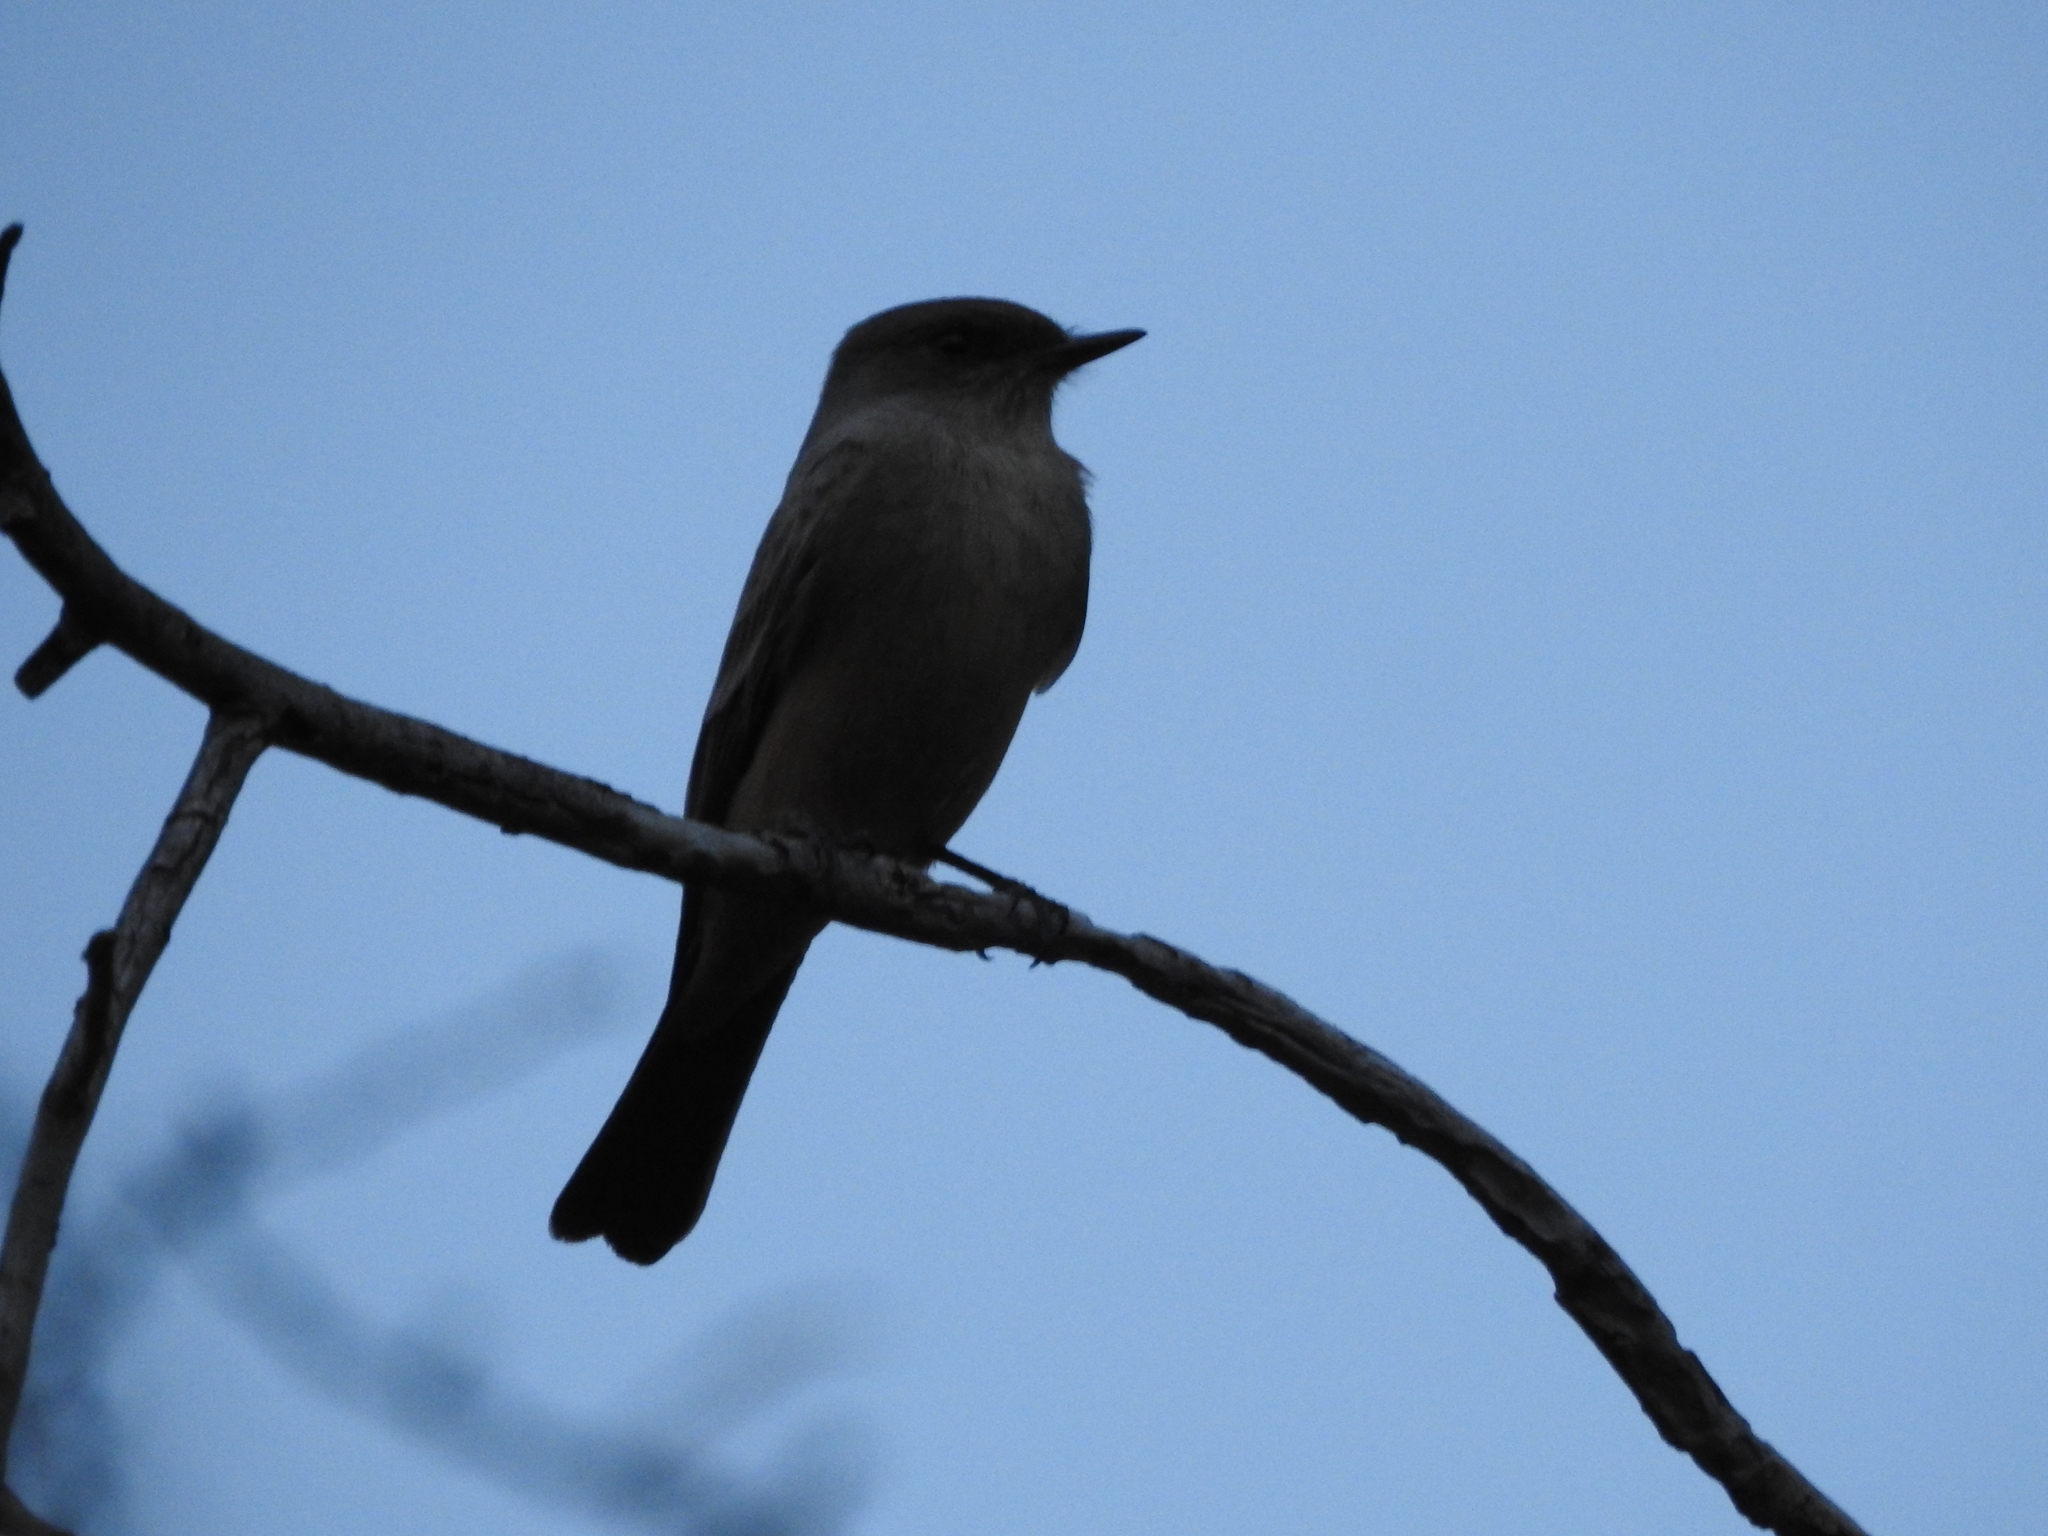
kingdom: Animalia
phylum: Chordata
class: Aves
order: Passeriformes
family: Tyrannidae
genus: Sayornis
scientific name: Sayornis saya
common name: Say's phoebe
